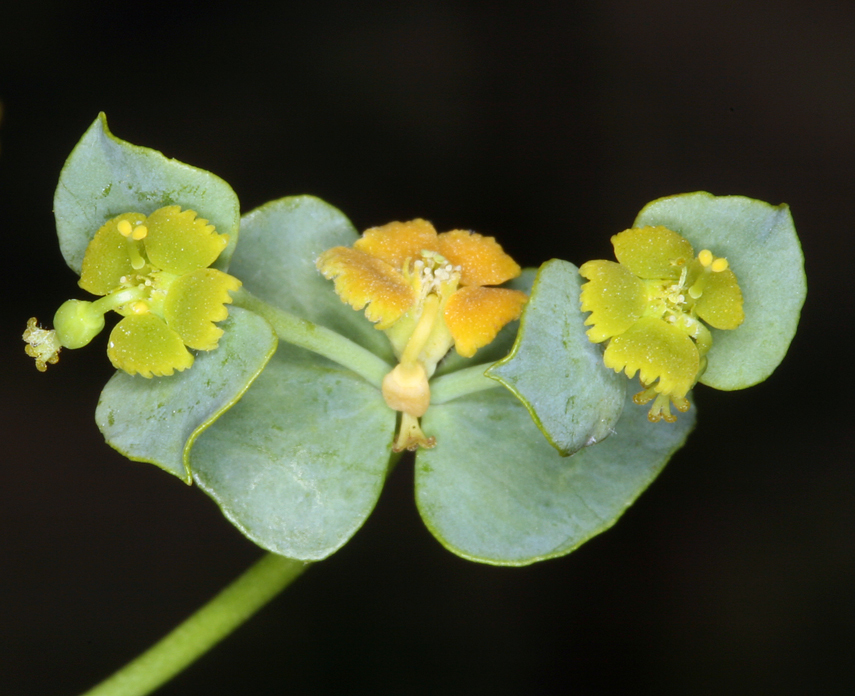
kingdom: Plantae
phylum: Tracheophyta
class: Magnoliopsida
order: Malpighiales
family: Euphorbiaceae
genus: Euphorbia
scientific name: Euphorbia schizoloba
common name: Mojave spurge
